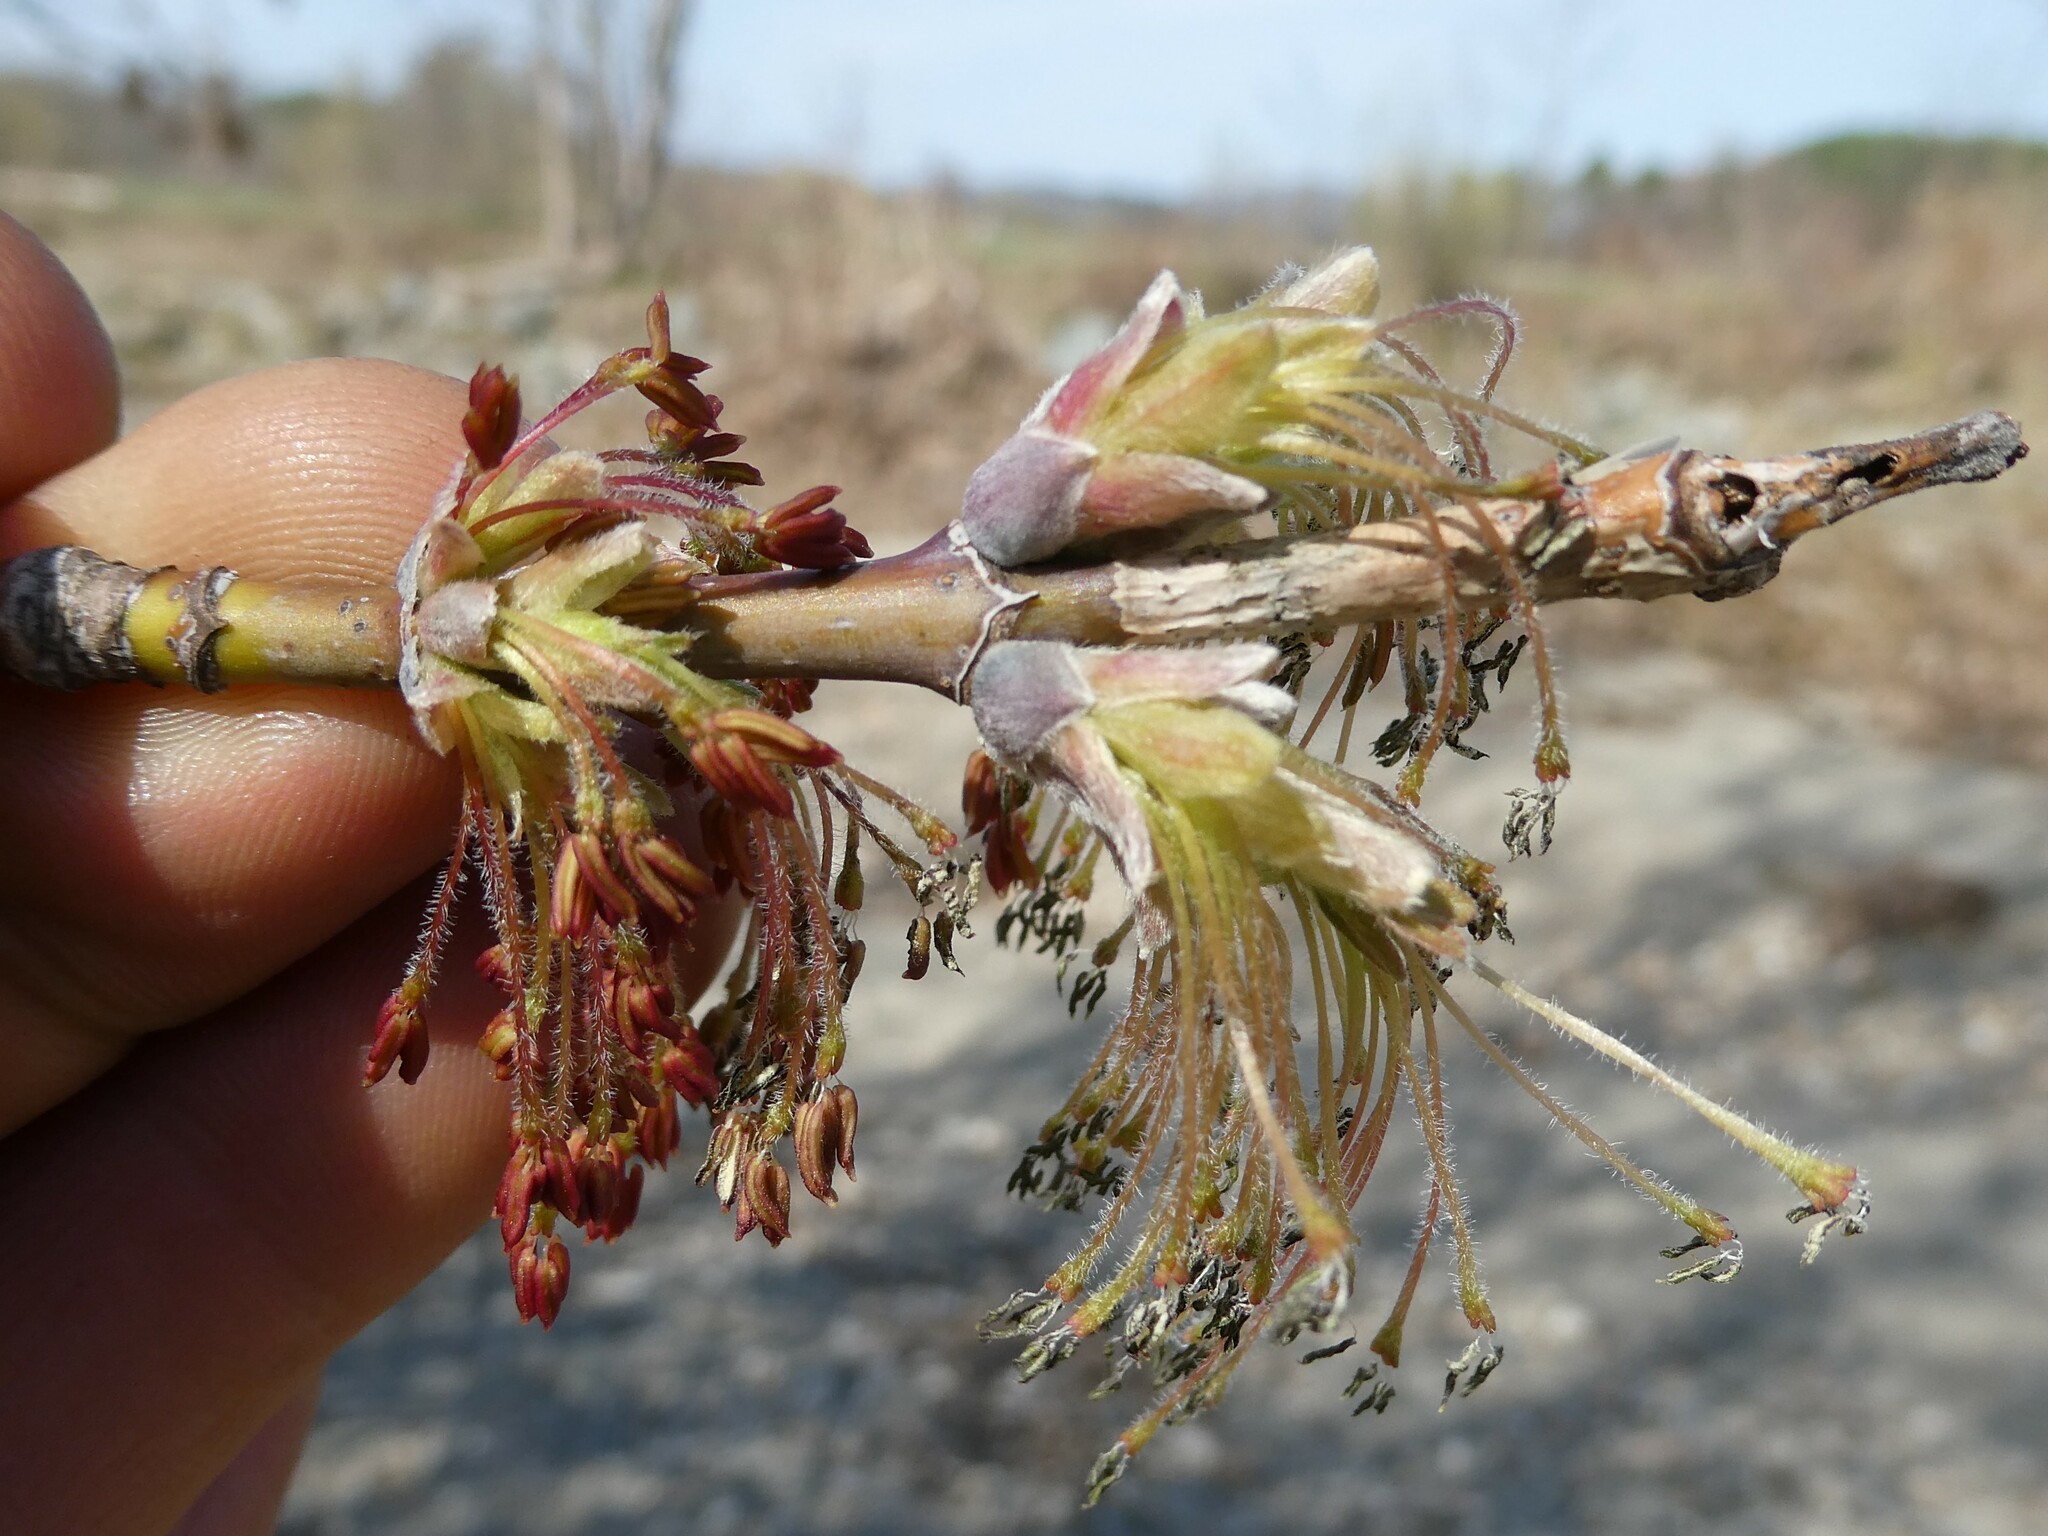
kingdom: Plantae
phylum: Tracheophyta
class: Magnoliopsida
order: Sapindales
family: Sapindaceae
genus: Acer
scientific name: Acer negundo
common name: Ashleaf maple
